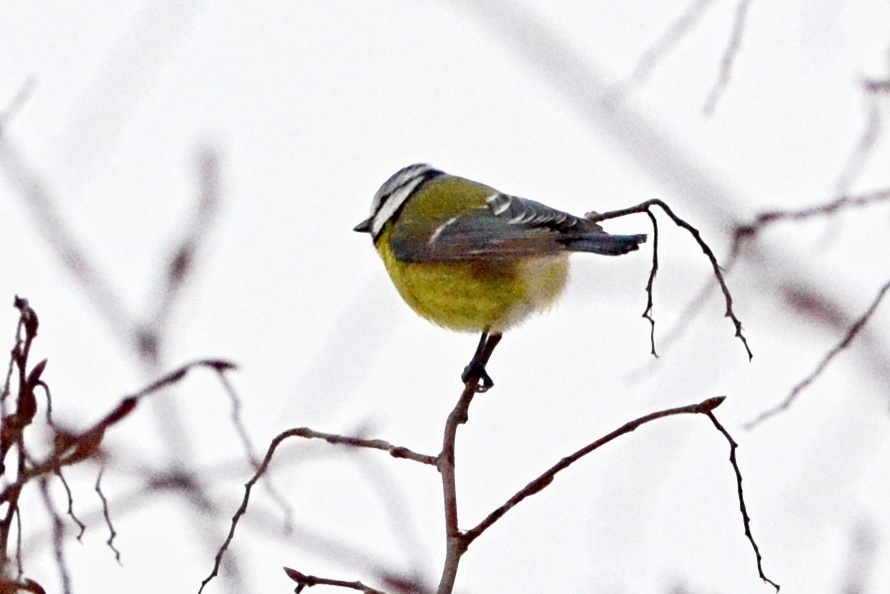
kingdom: Animalia
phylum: Chordata
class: Aves
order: Passeriformes
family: Paridae
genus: Cyanistes
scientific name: Cyanistes caeruleus
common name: Eurasian blue tit
